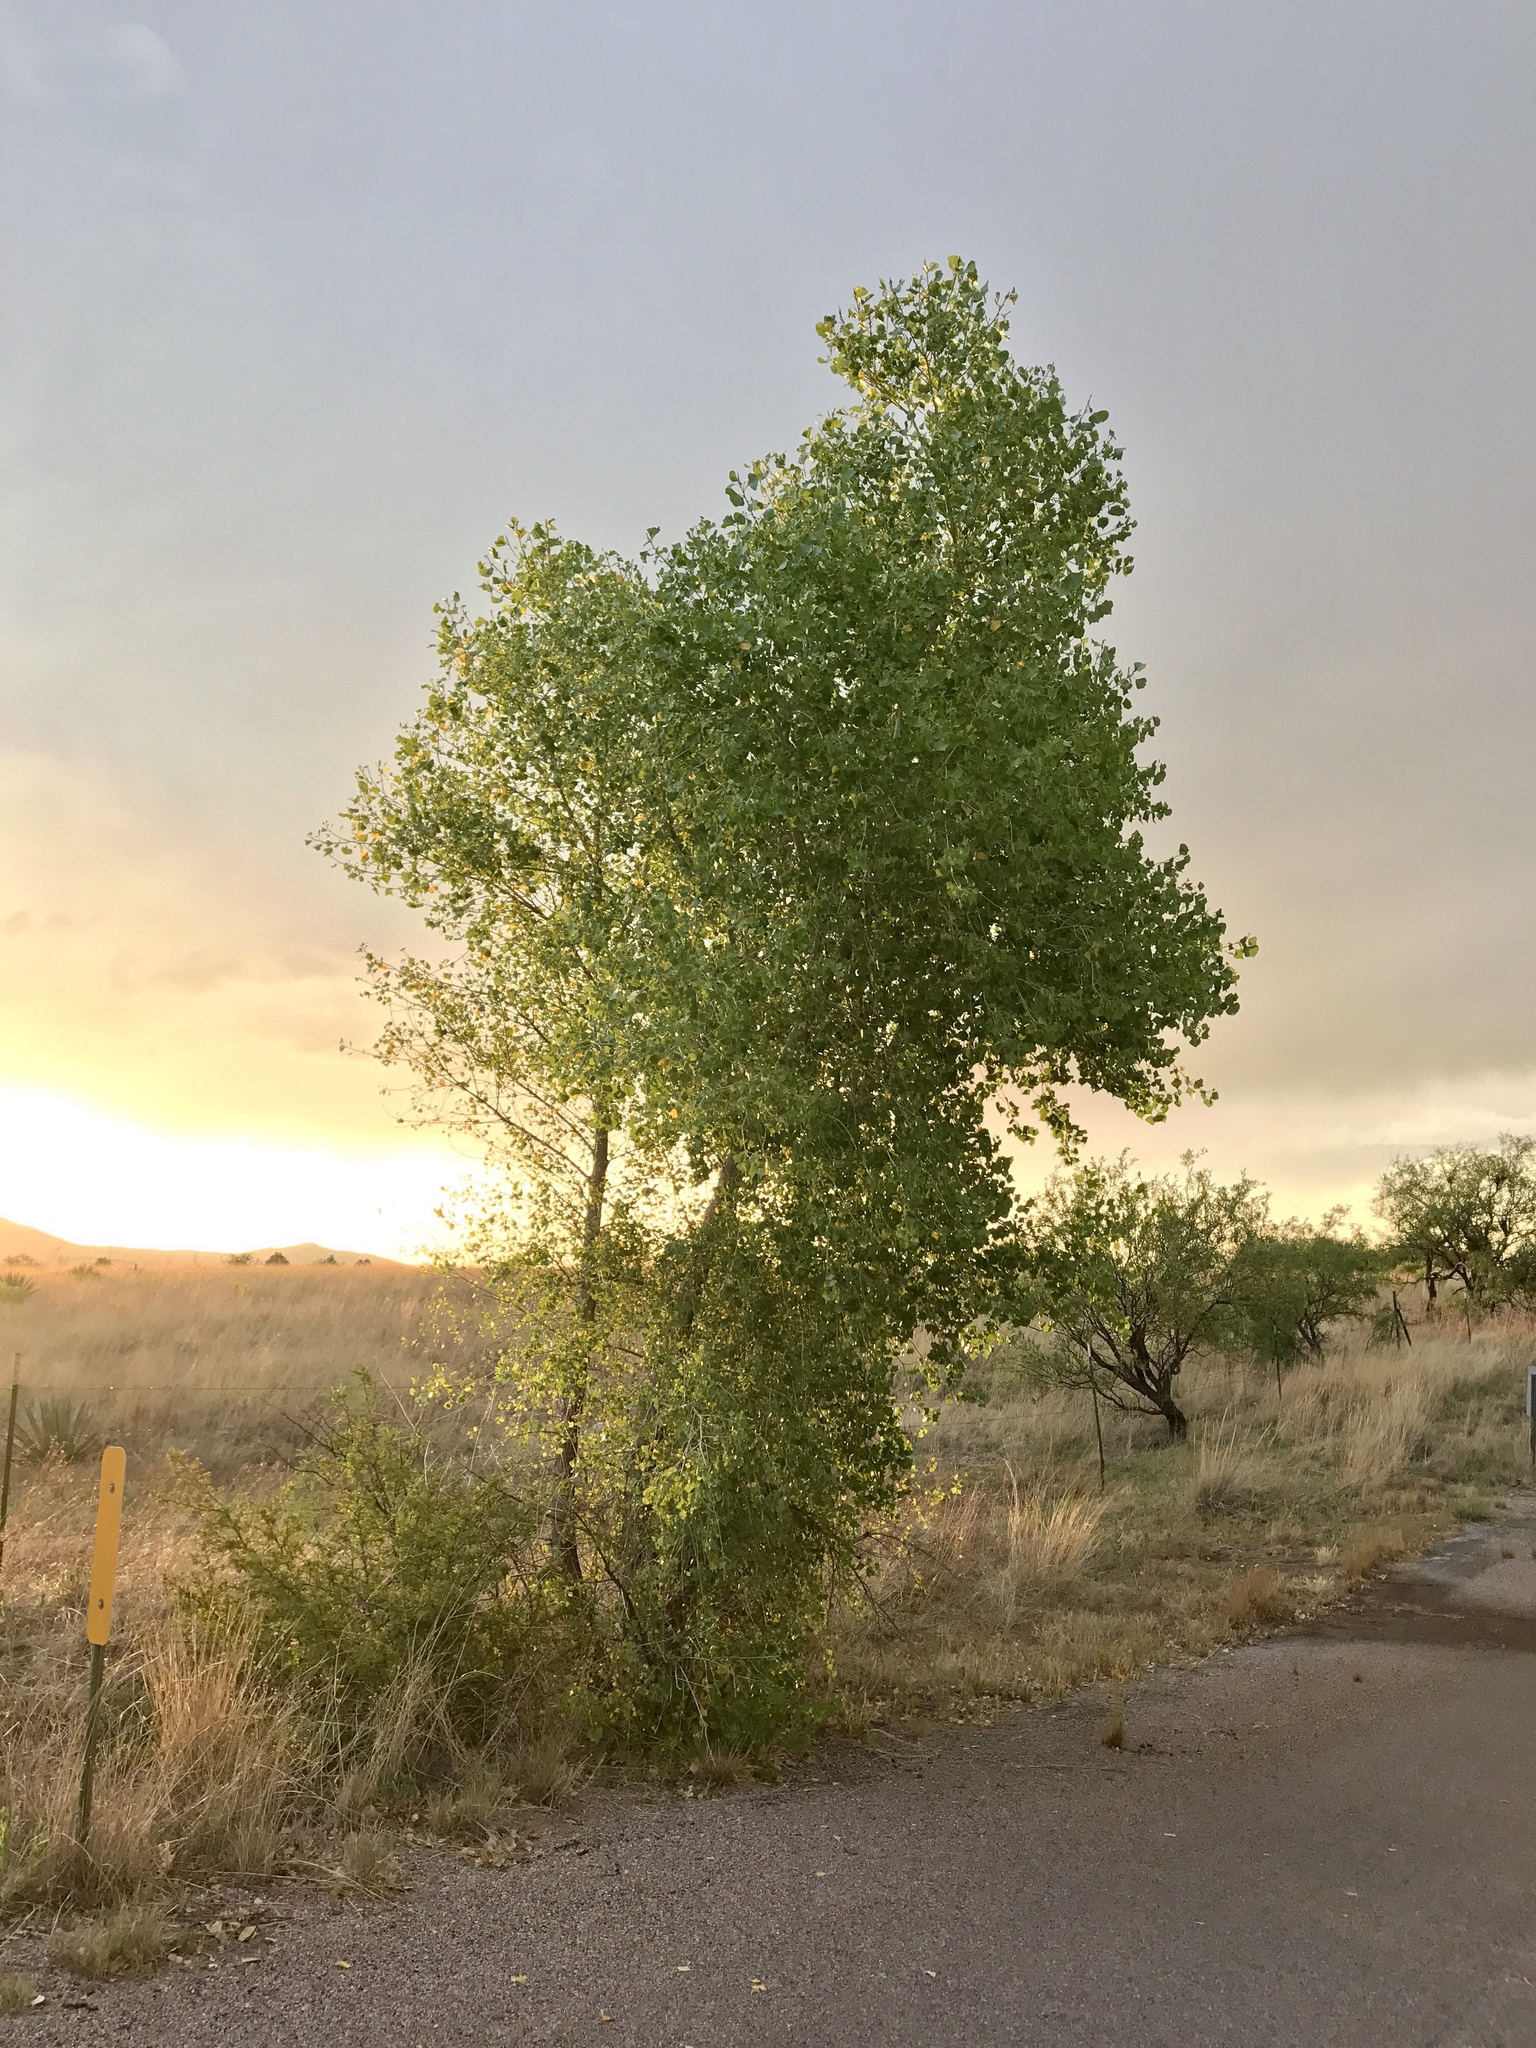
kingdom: Plantae
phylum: Tracheophyta
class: Magnoliopsida
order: Malpighiales
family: Salicaceae
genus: Populus
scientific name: Populus fremontii
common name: Fremont's cottonwood
